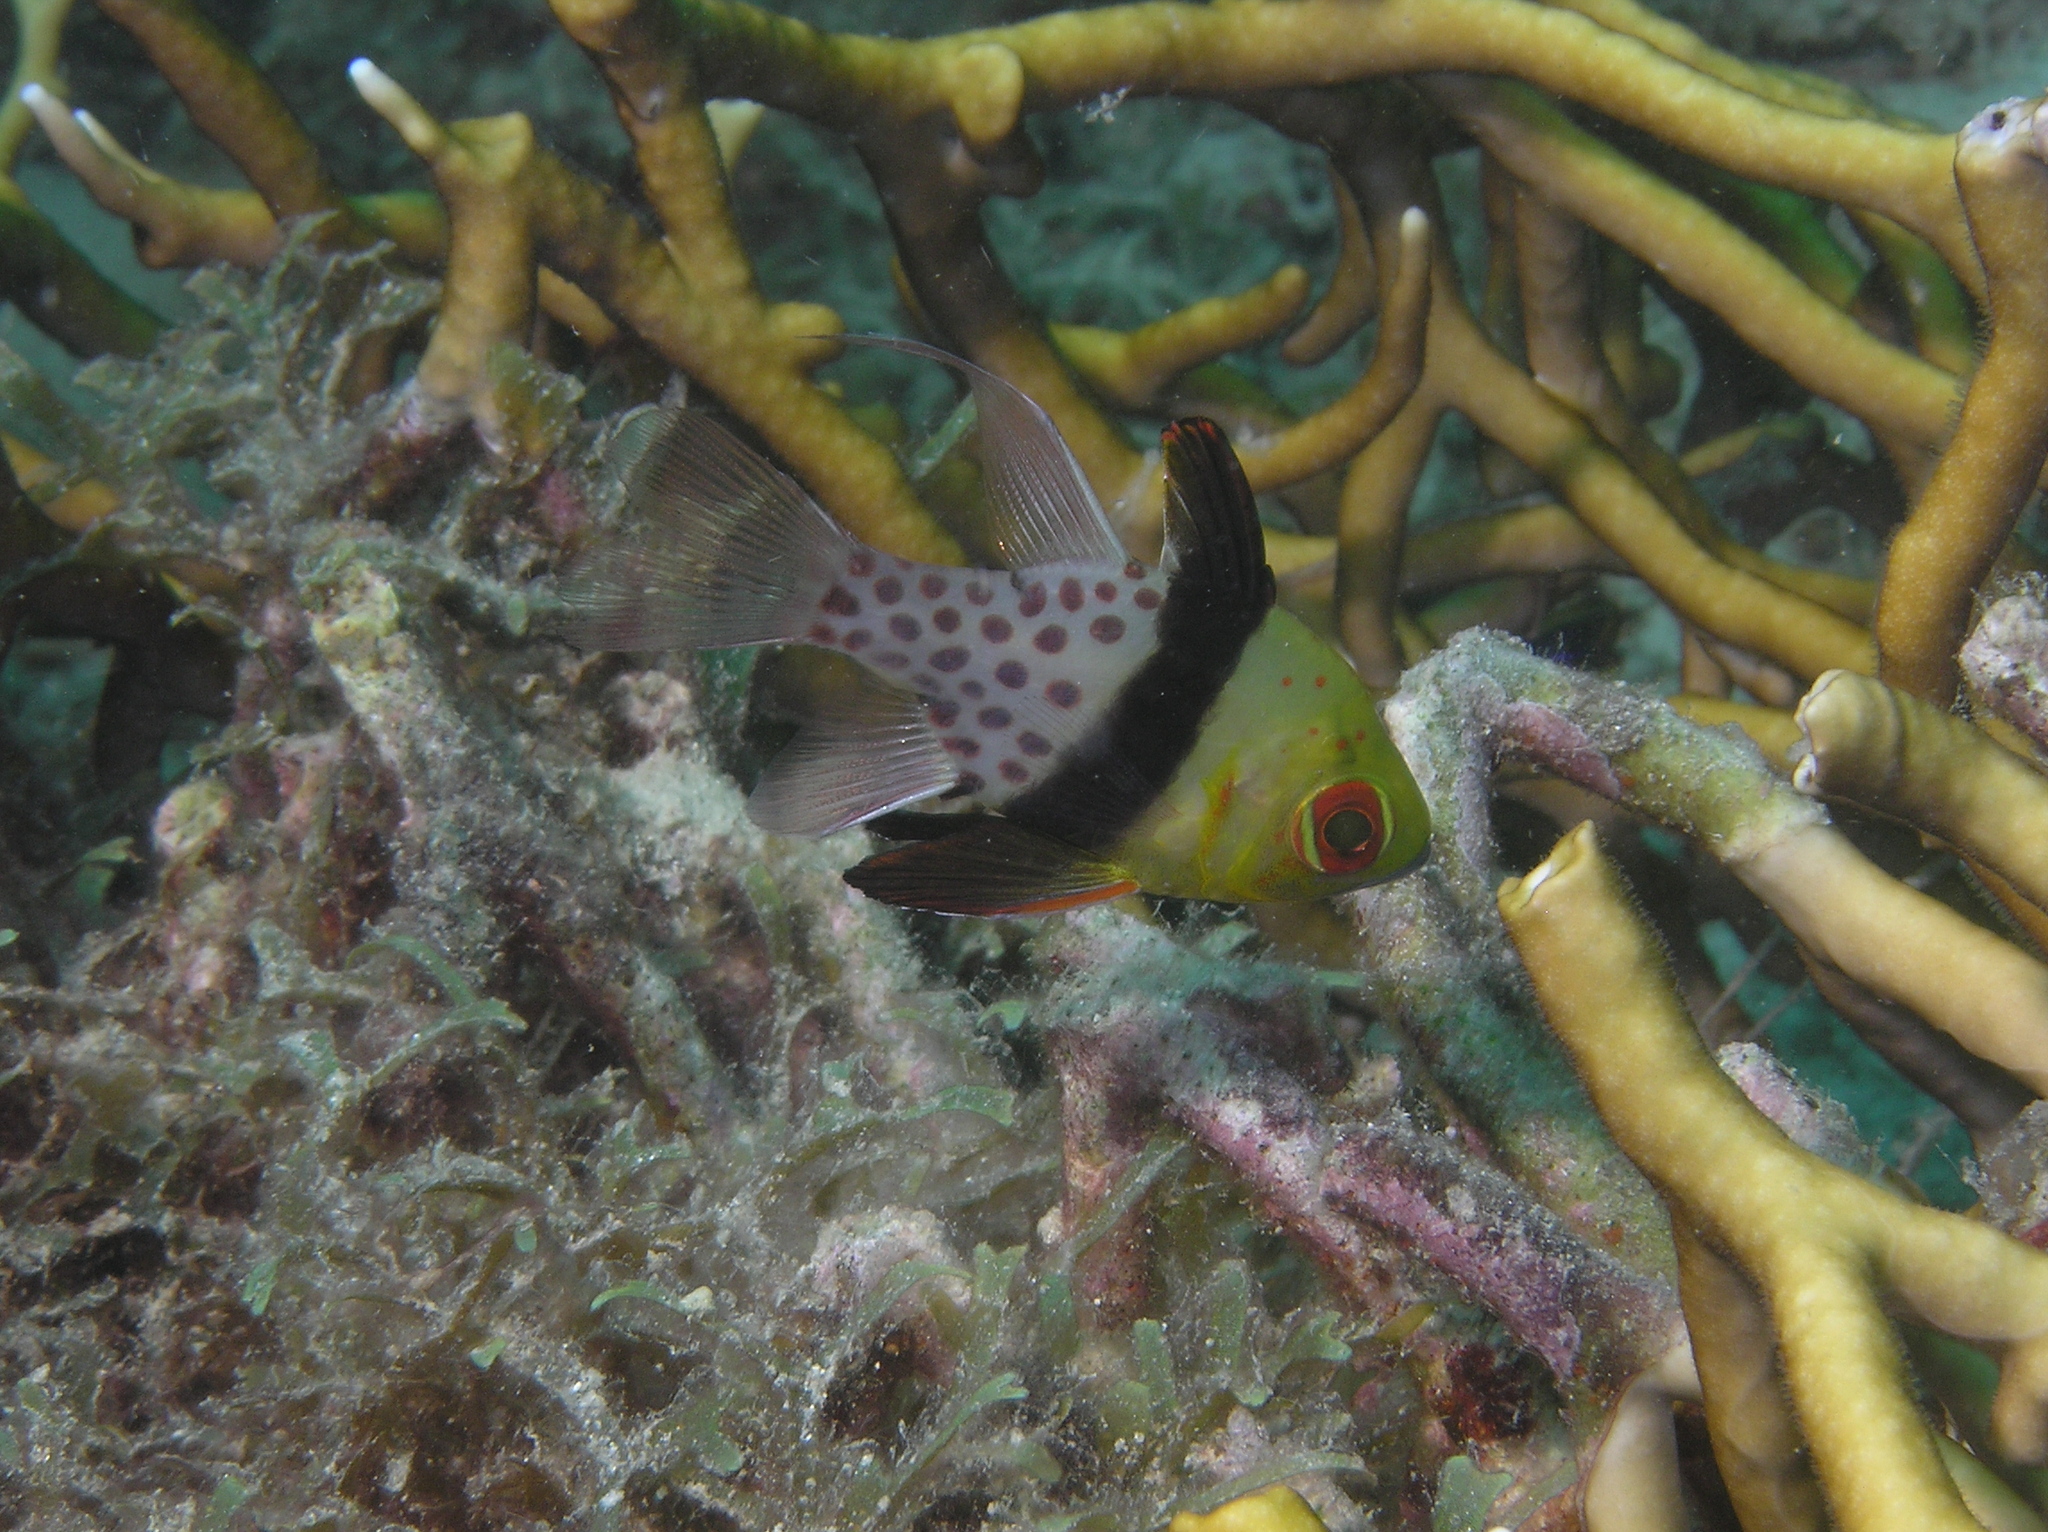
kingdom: Animalia
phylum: Chordata
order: Perciformes
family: Apogonidae
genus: Sphaeramia
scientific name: Sphaeramia nematoptera
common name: Pajama cardinalfish
